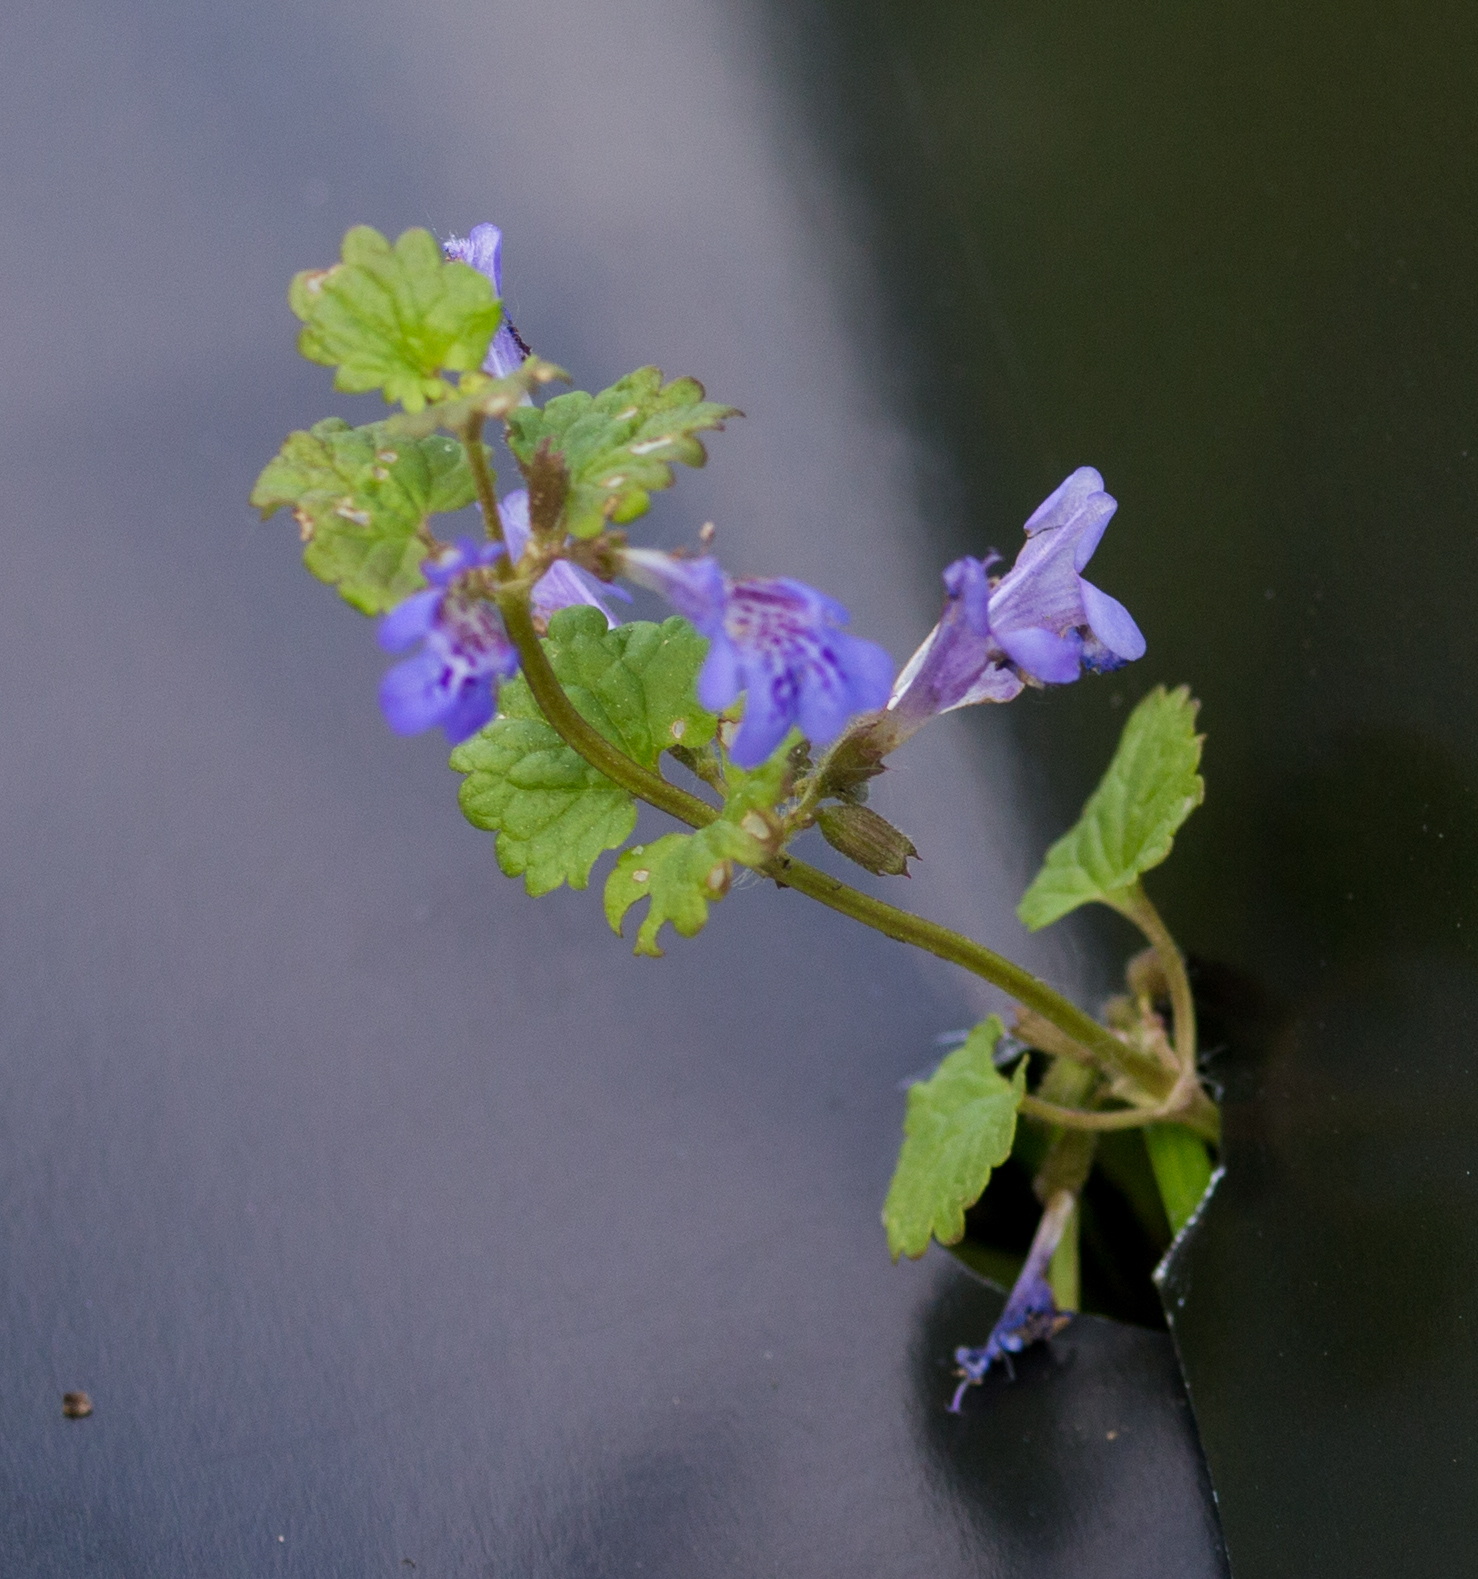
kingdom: Plantae
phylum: Tracheophyta
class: Magnoliopsida
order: Lamiales
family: Lamiaceae
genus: Glechoma
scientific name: Glechoma hederacea
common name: Ground ivy
